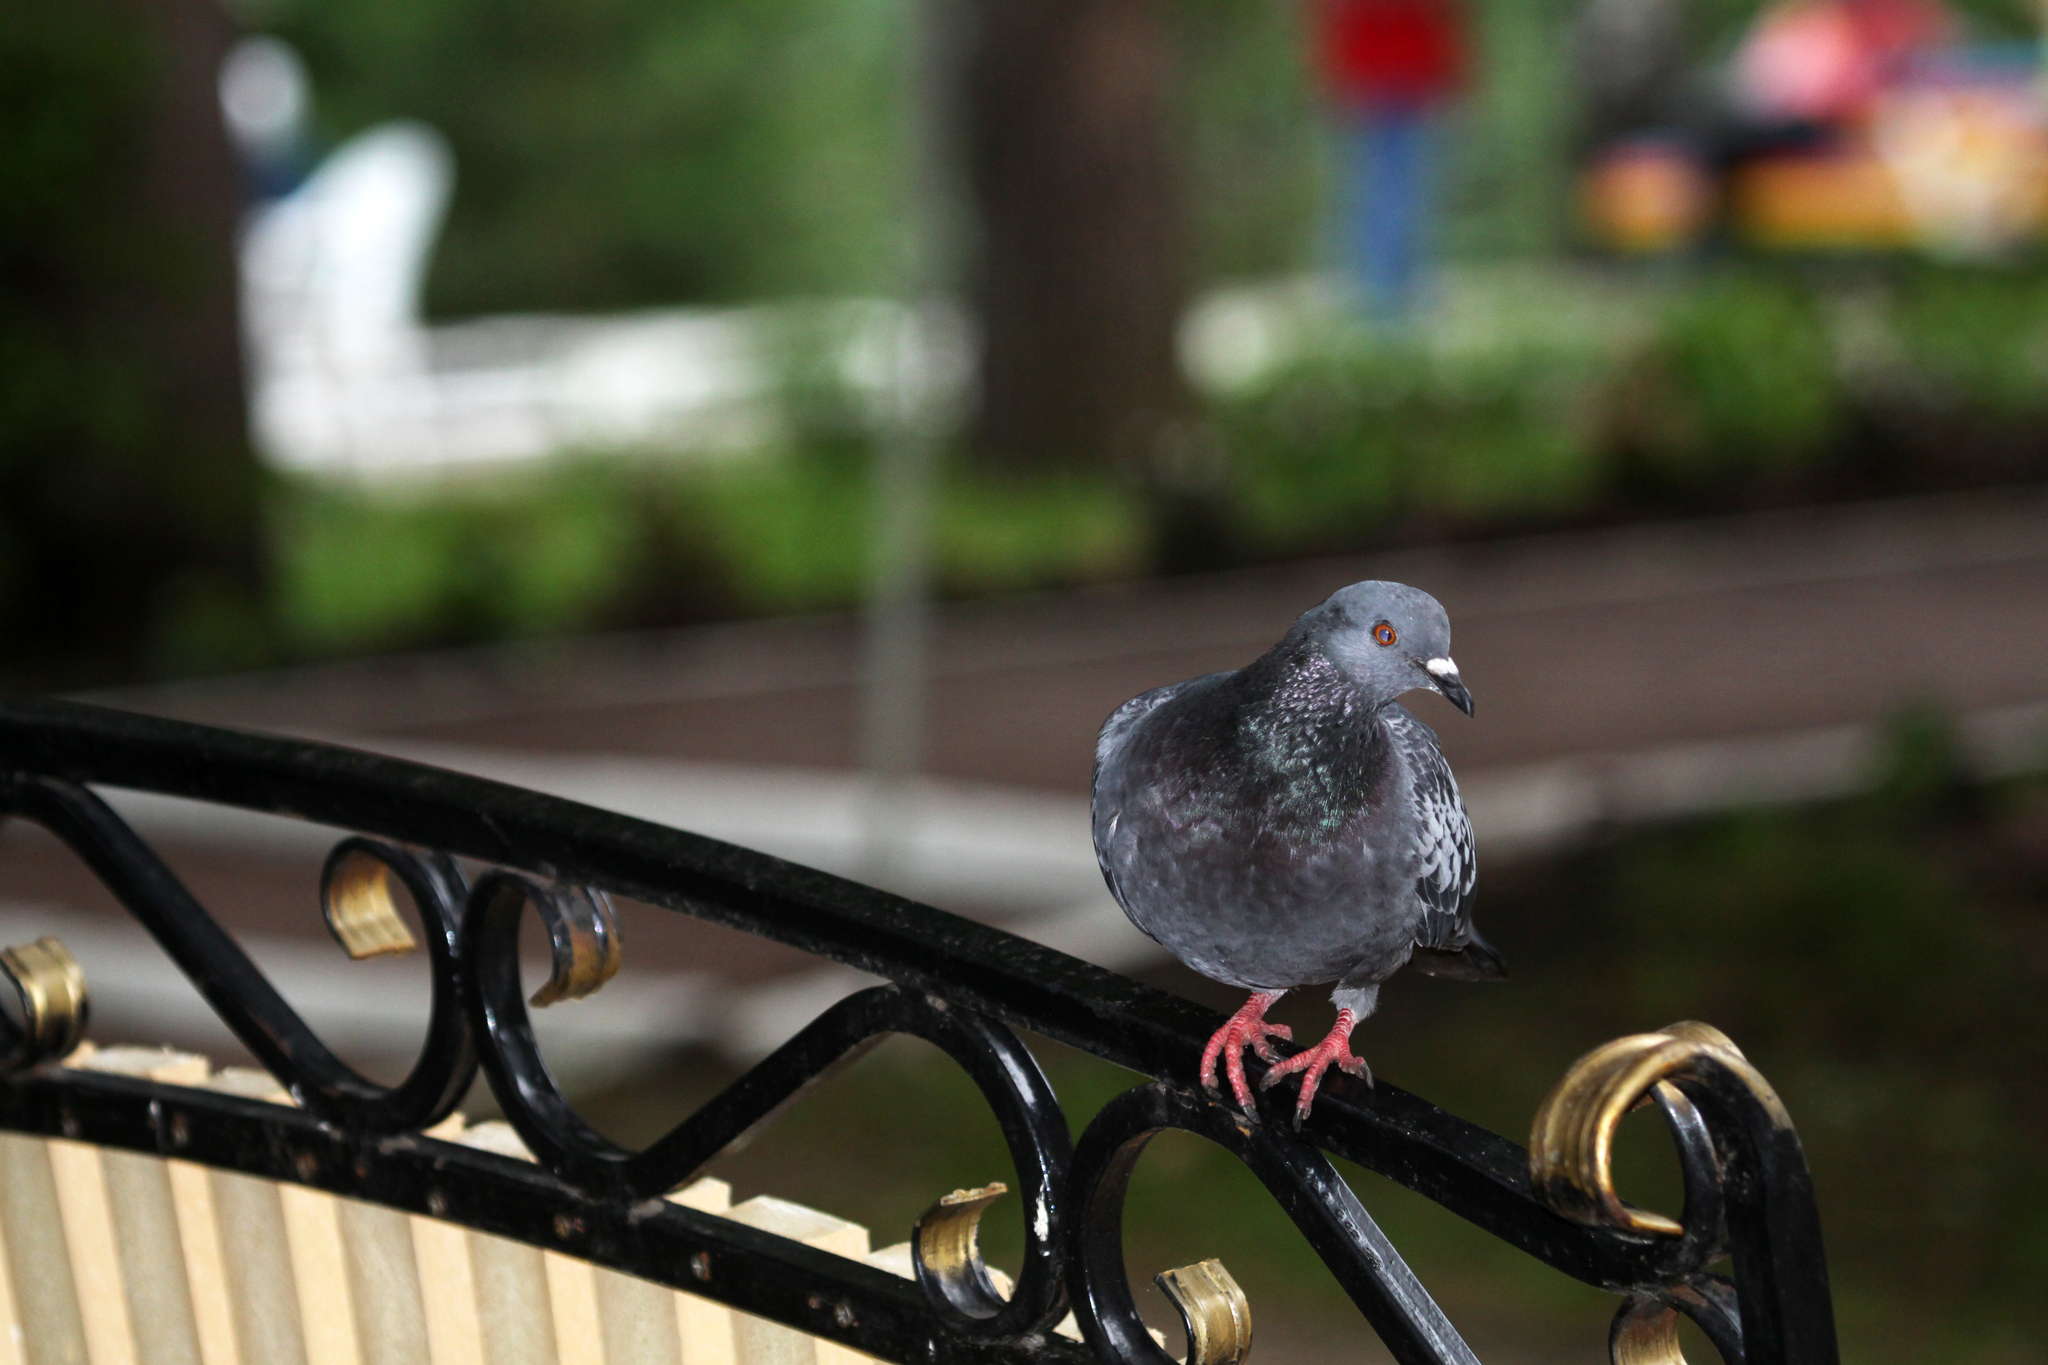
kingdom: Animalia
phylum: Chordata
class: Aves
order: Columbiformes
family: Columbidae
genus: Columba
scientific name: Columba livia
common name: Rock pigeon
